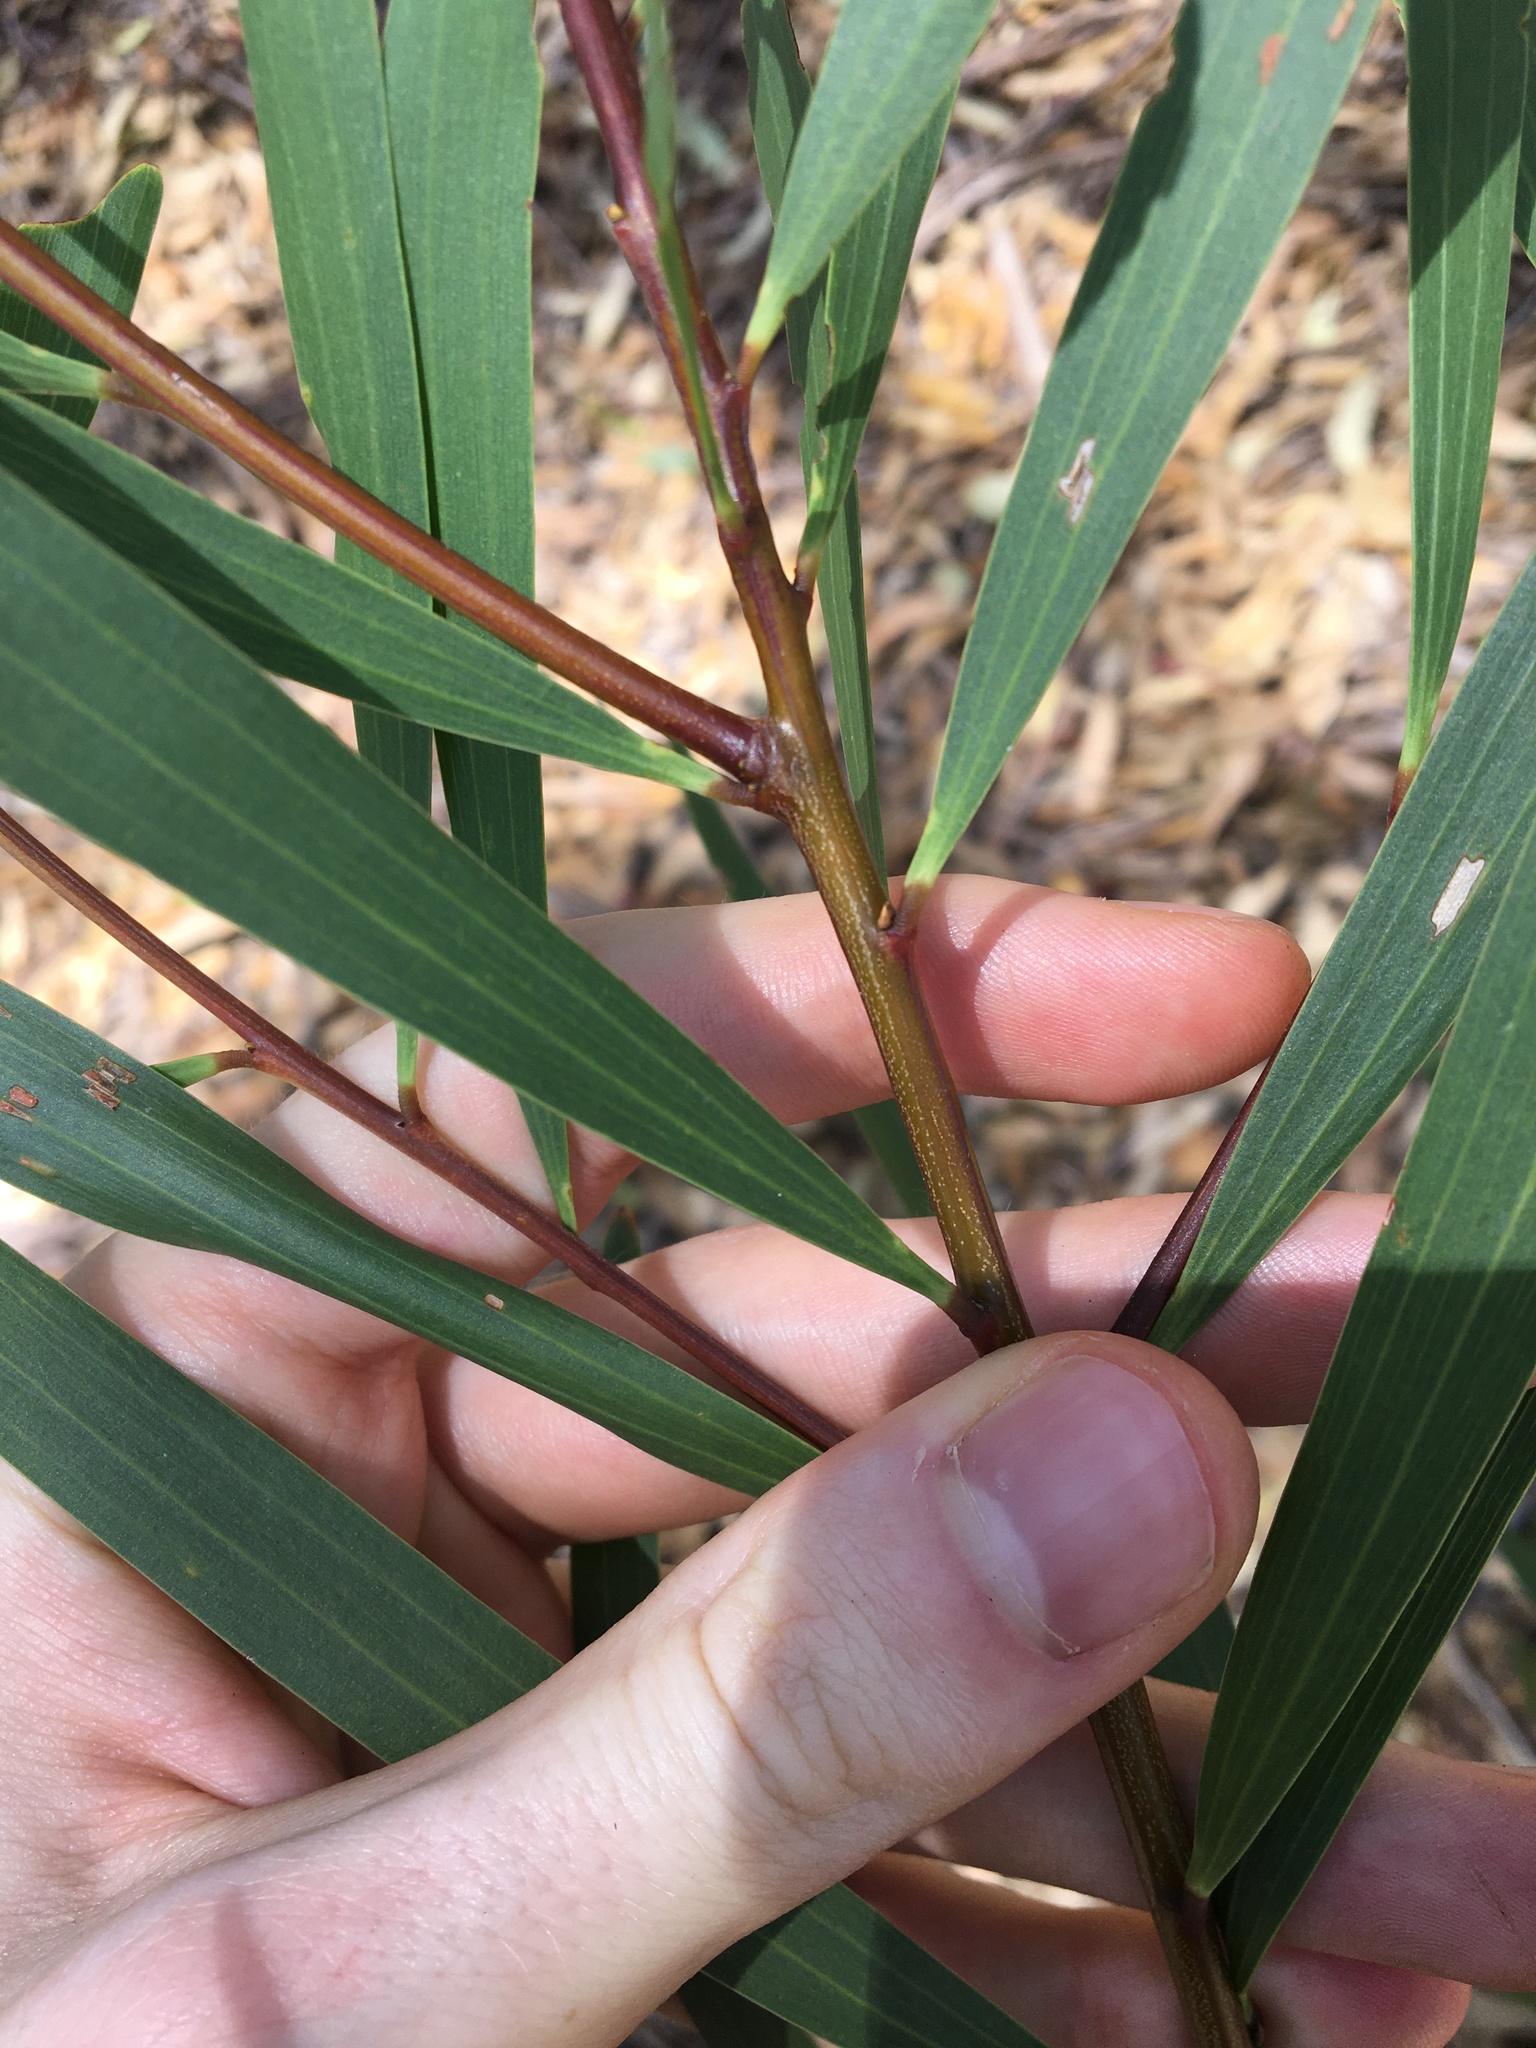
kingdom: Plantae
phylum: Tracheophyta
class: Magnoliopsida
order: Fabales
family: Fabaceae
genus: Acacia
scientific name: Acacia longifolia
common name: Sydney golden wattle
